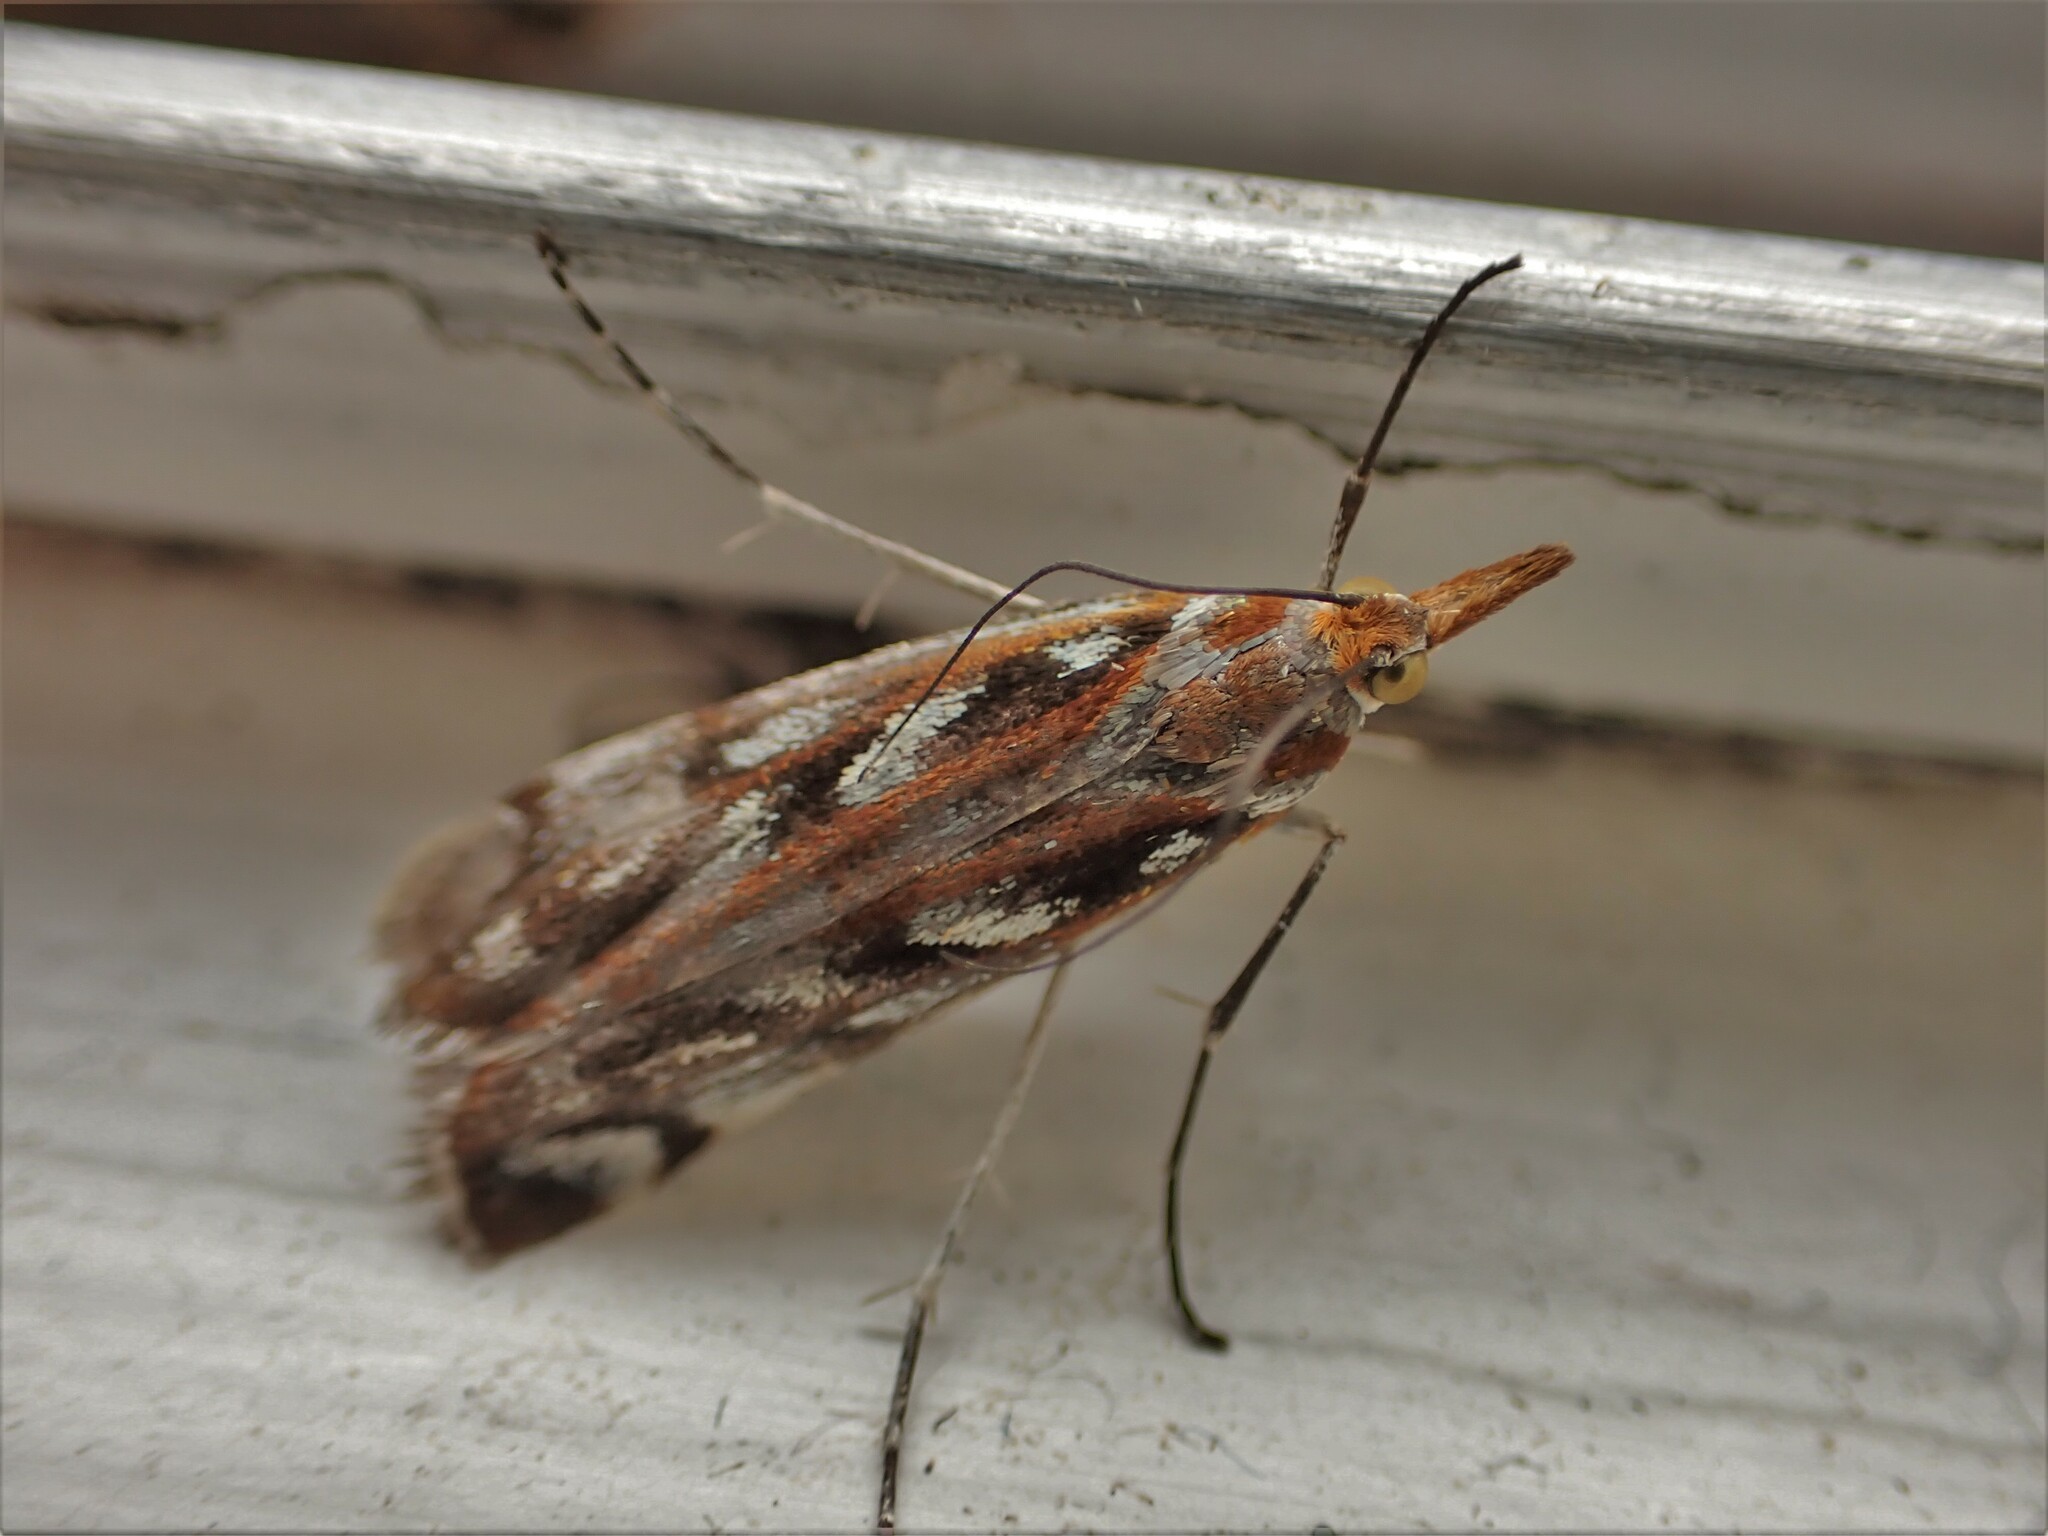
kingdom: Animalia
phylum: Arthropoda
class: Insecta
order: Lepidoptera
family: Crambidae
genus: Orocrambus
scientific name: Orocrambus xanthogrammus
